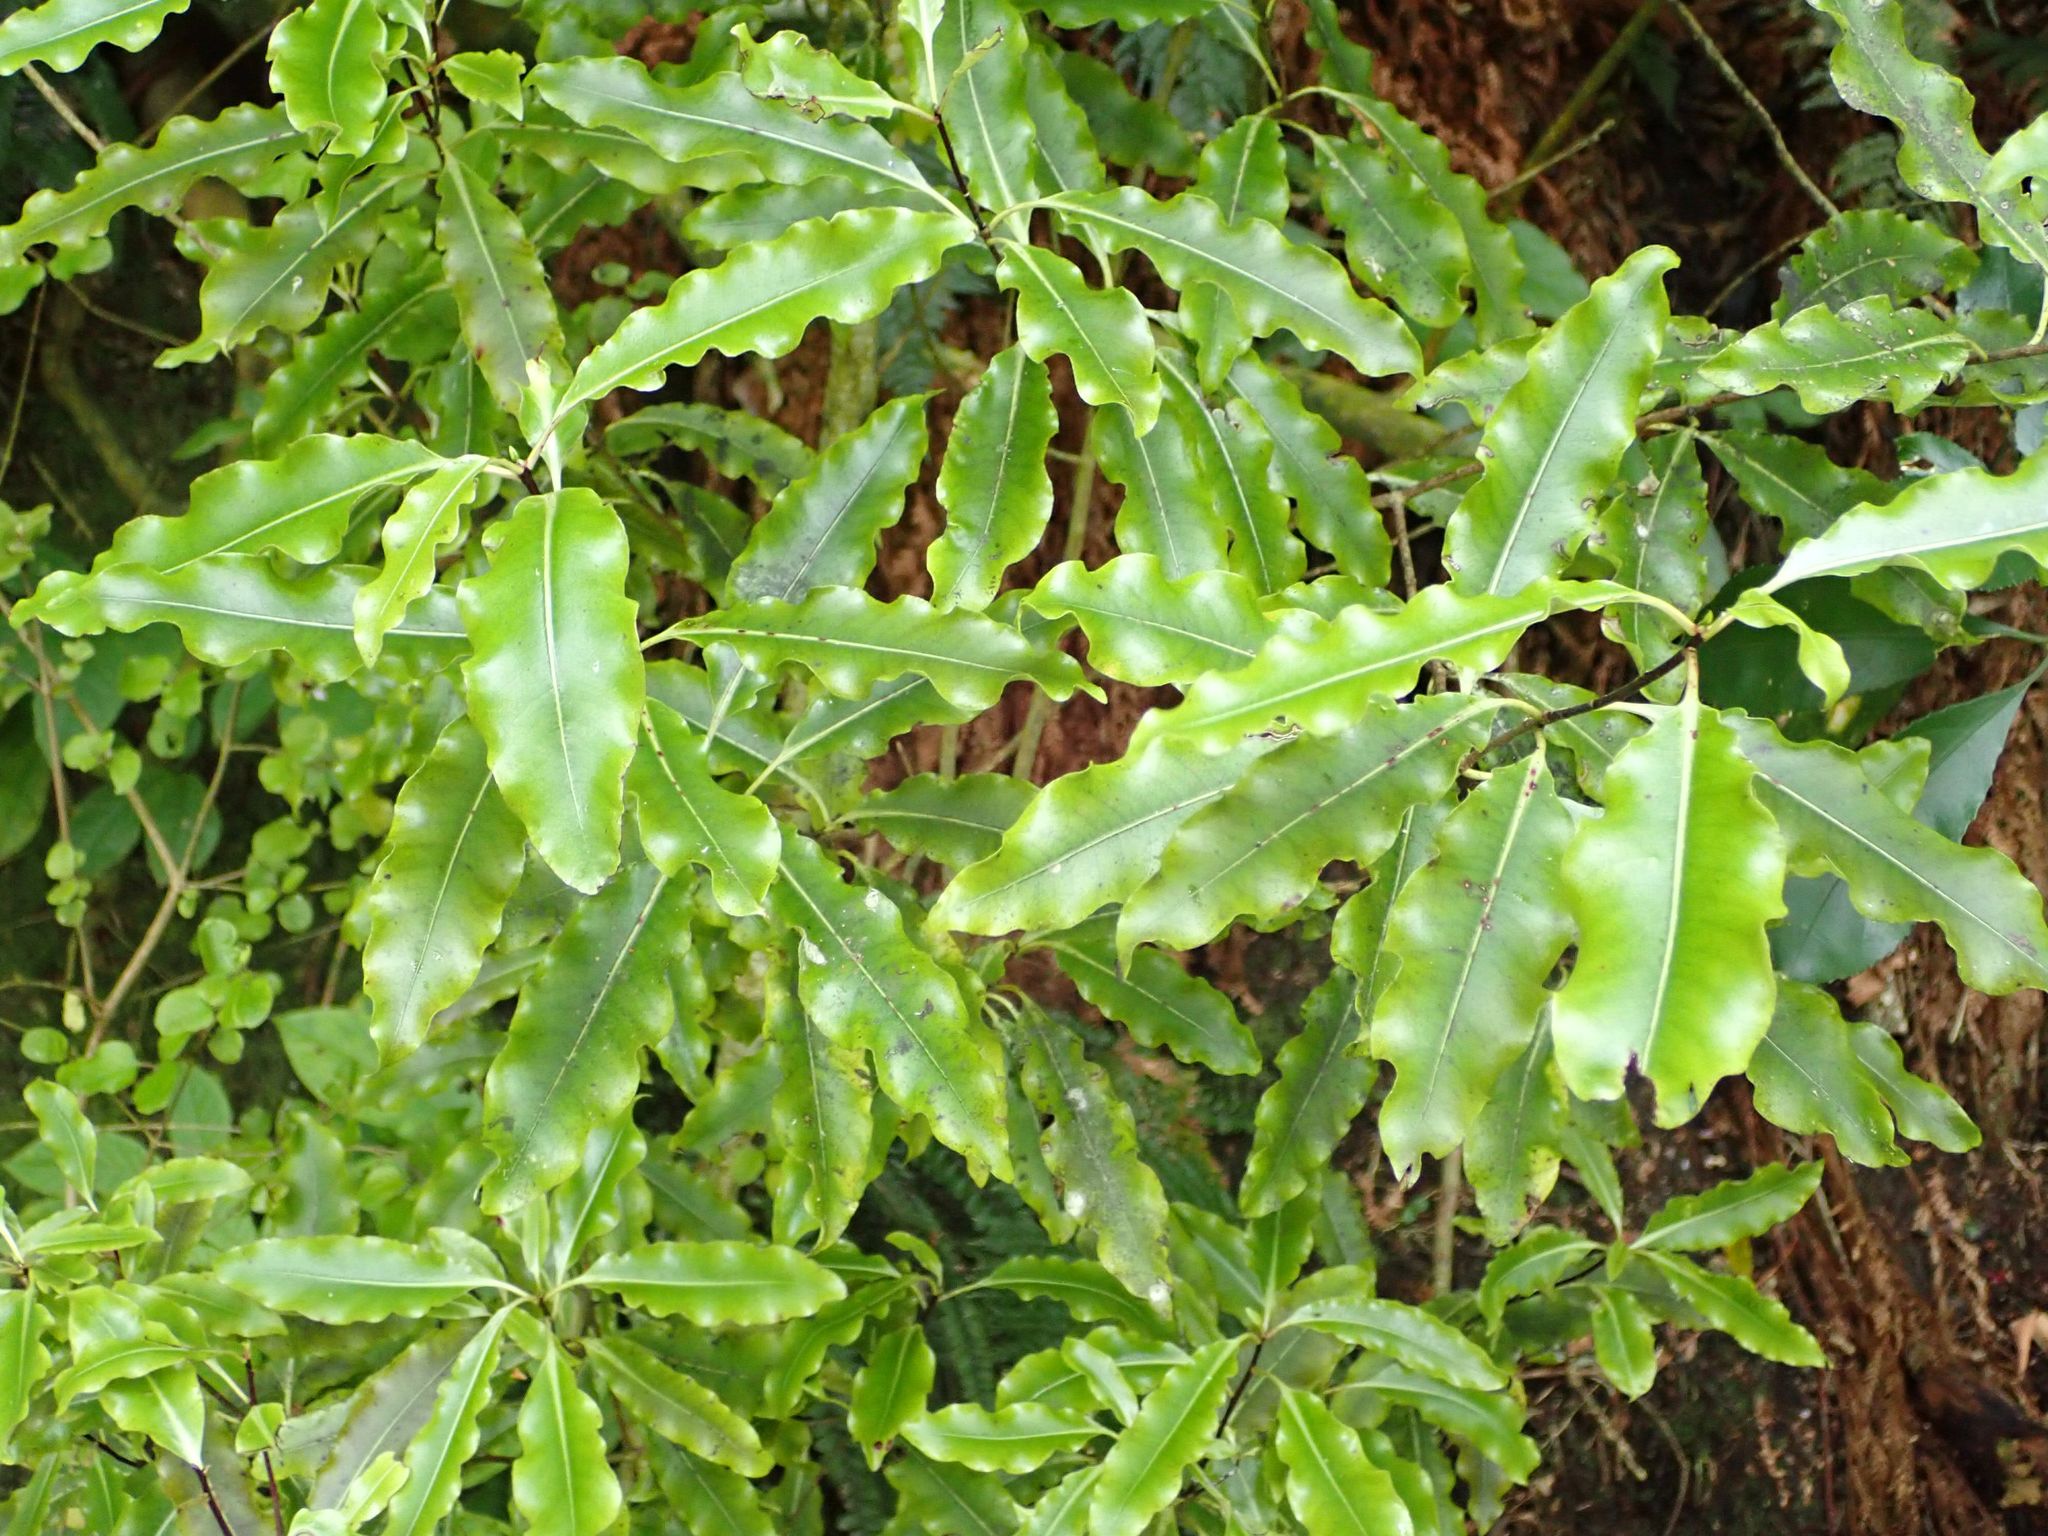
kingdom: Plantae
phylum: Tracheophyta
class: Magnoliopsida
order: Apiales
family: Pittosporaceae
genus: Pittosporum
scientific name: Pittosporum eugenioides
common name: Lemonwood
